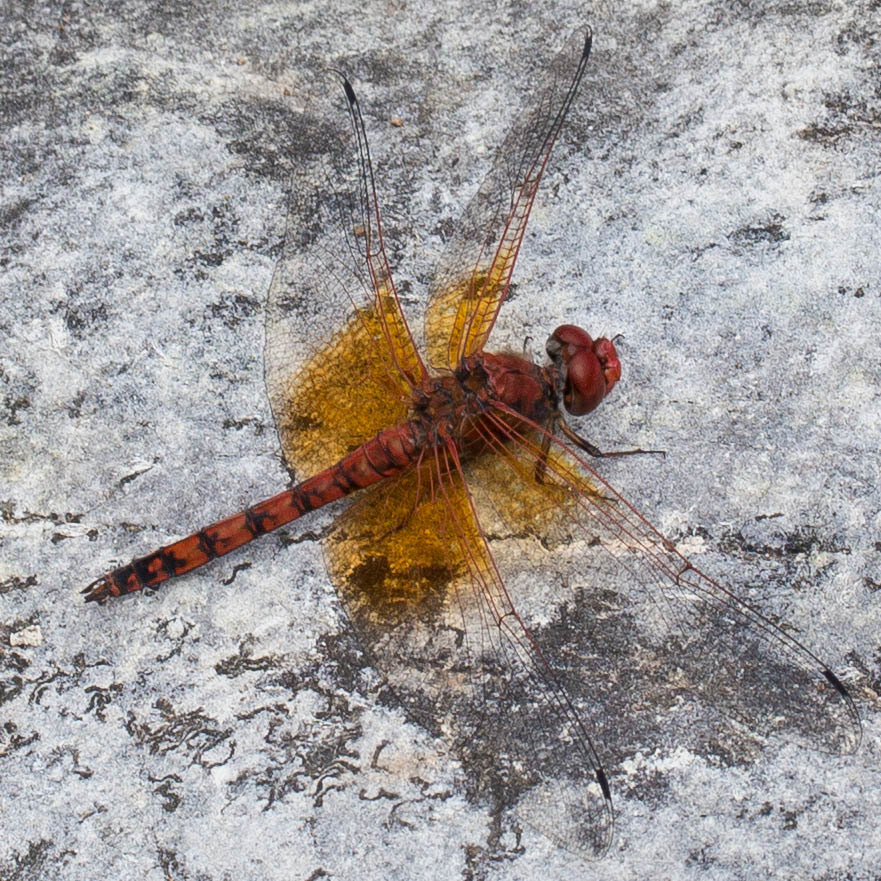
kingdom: Animalia
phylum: Arthropoda
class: Insecta
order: Odonata
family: Libellulidae
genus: Paltothemis
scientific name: Paltothemis lineatipes
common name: Red rock skimmer
